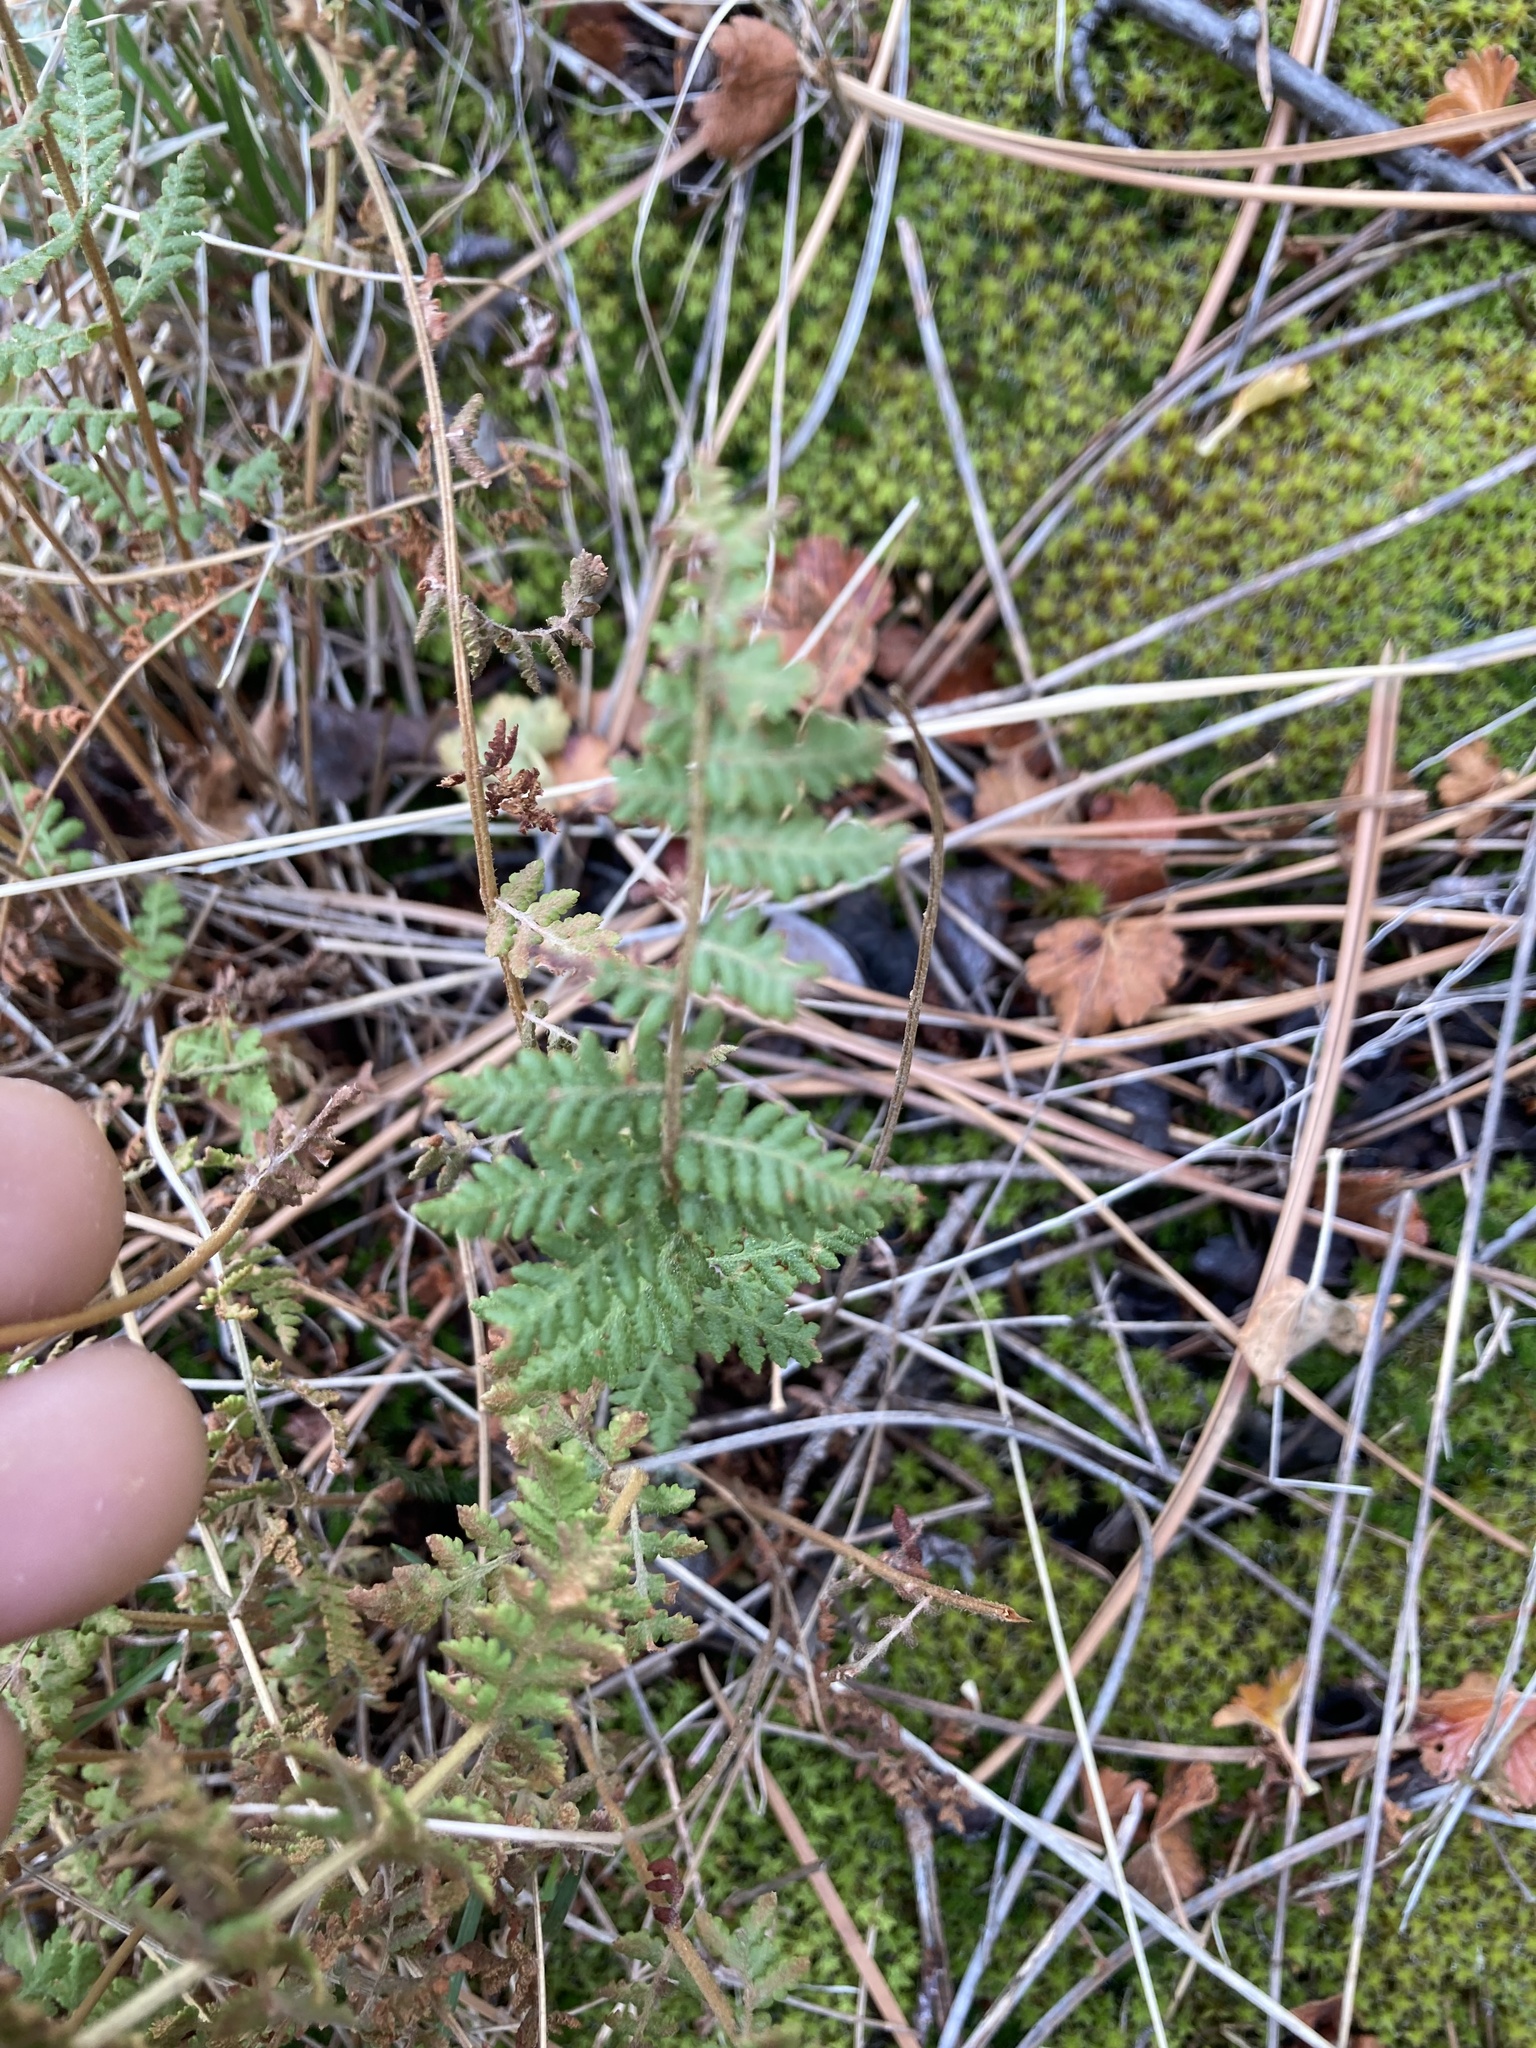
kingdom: Plantae
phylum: Tracheophyta
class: Polypodiopsida
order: Polypodiales
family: Woodsiaceae
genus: Physematium
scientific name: Physematium scopulinum
